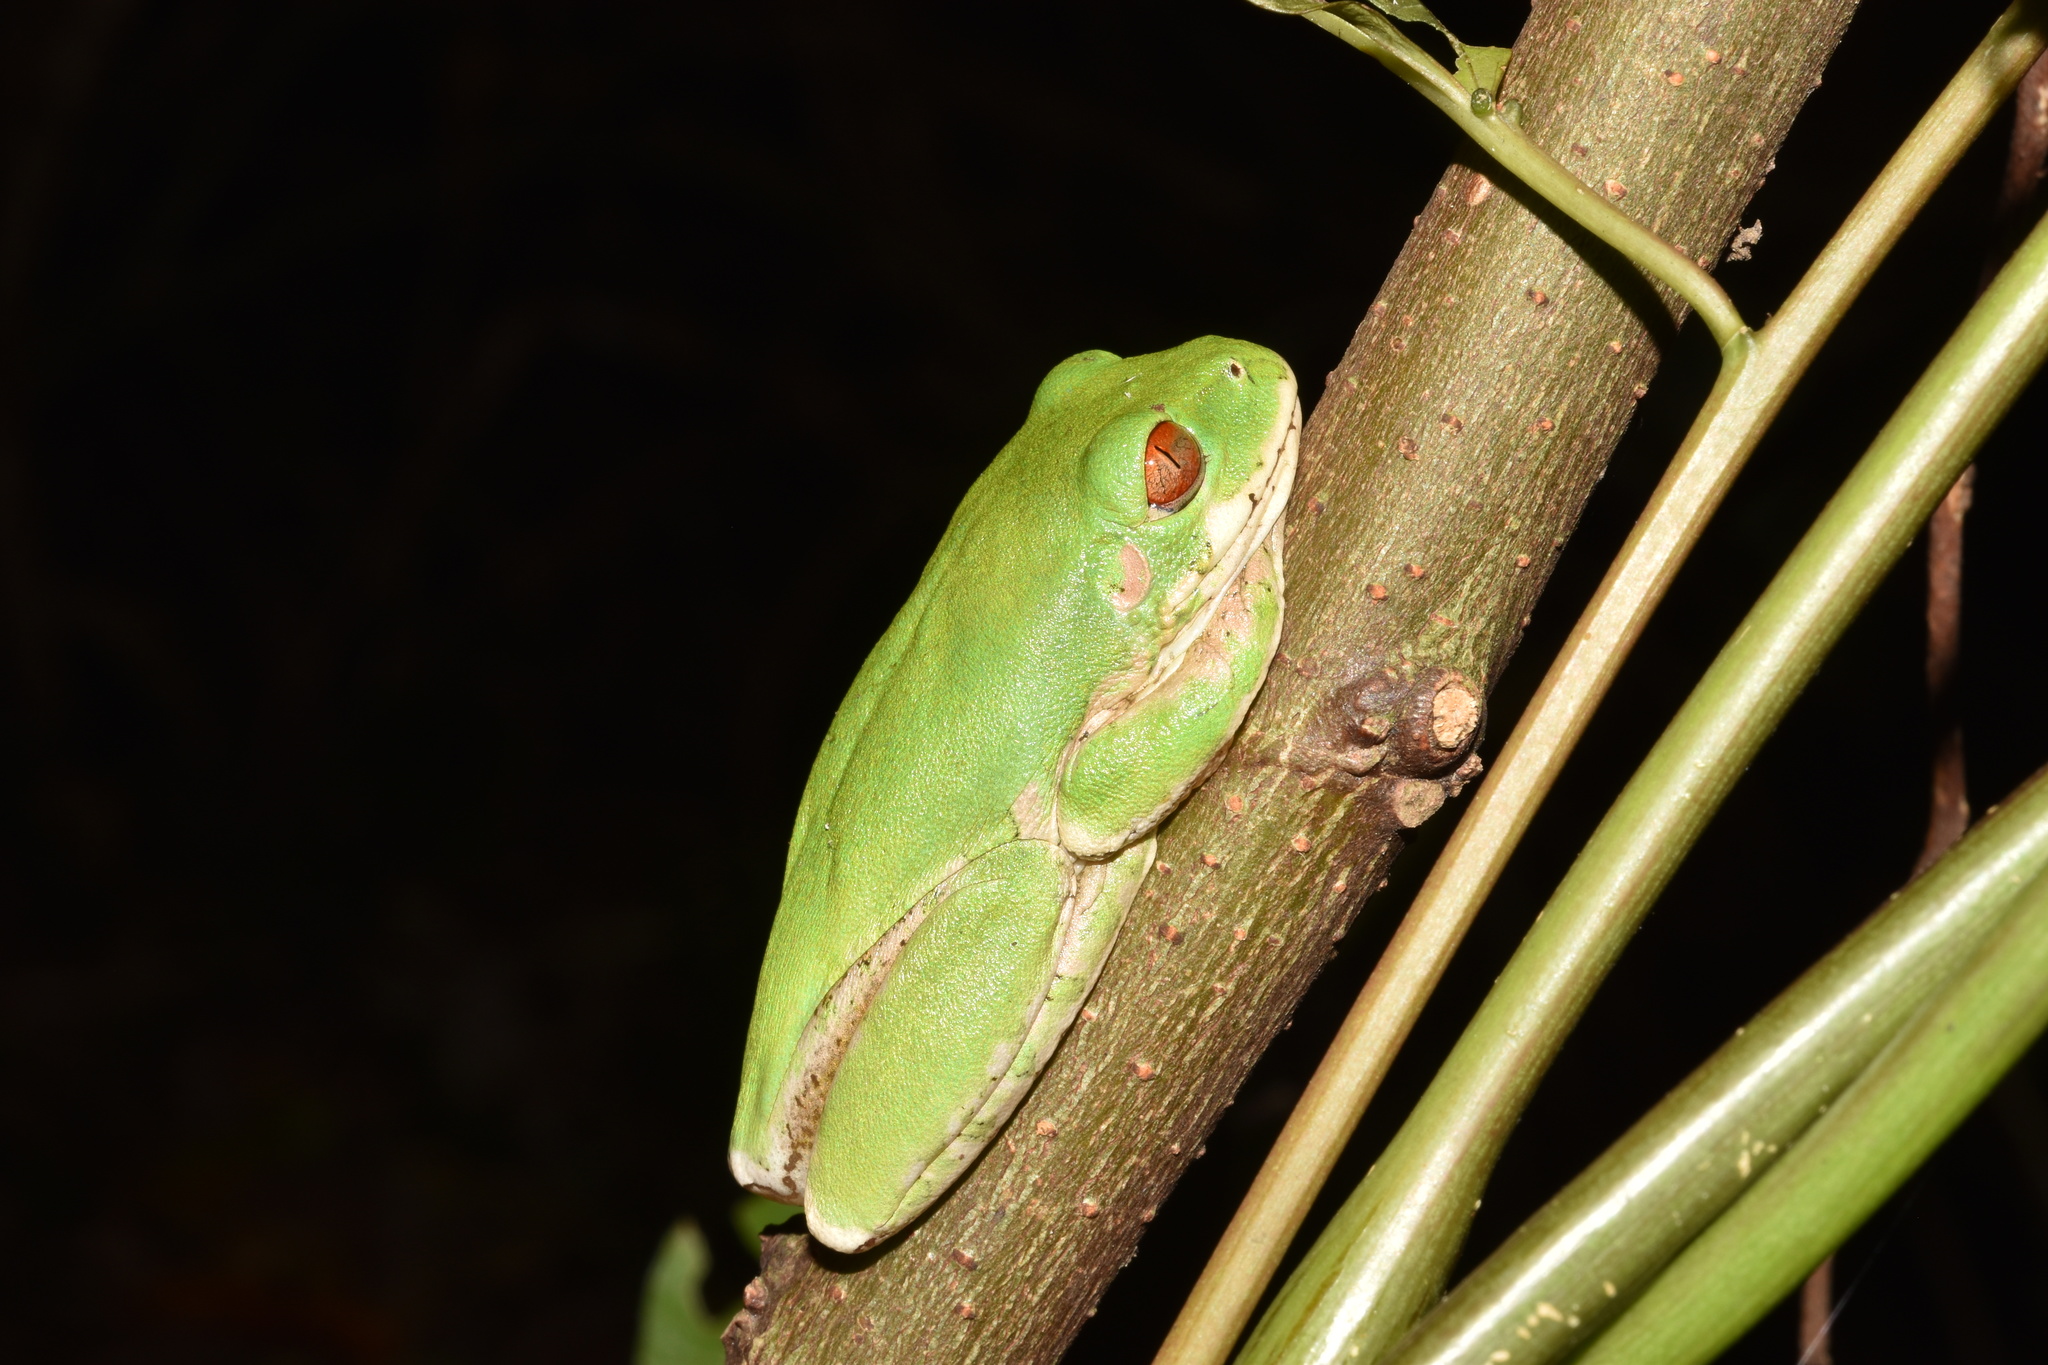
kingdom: Animalia
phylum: Chordata
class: Amphibia
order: Anura
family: Arthroleptidae
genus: Leptopelis
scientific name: Leptopelis natalensis
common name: Natal tree frog
